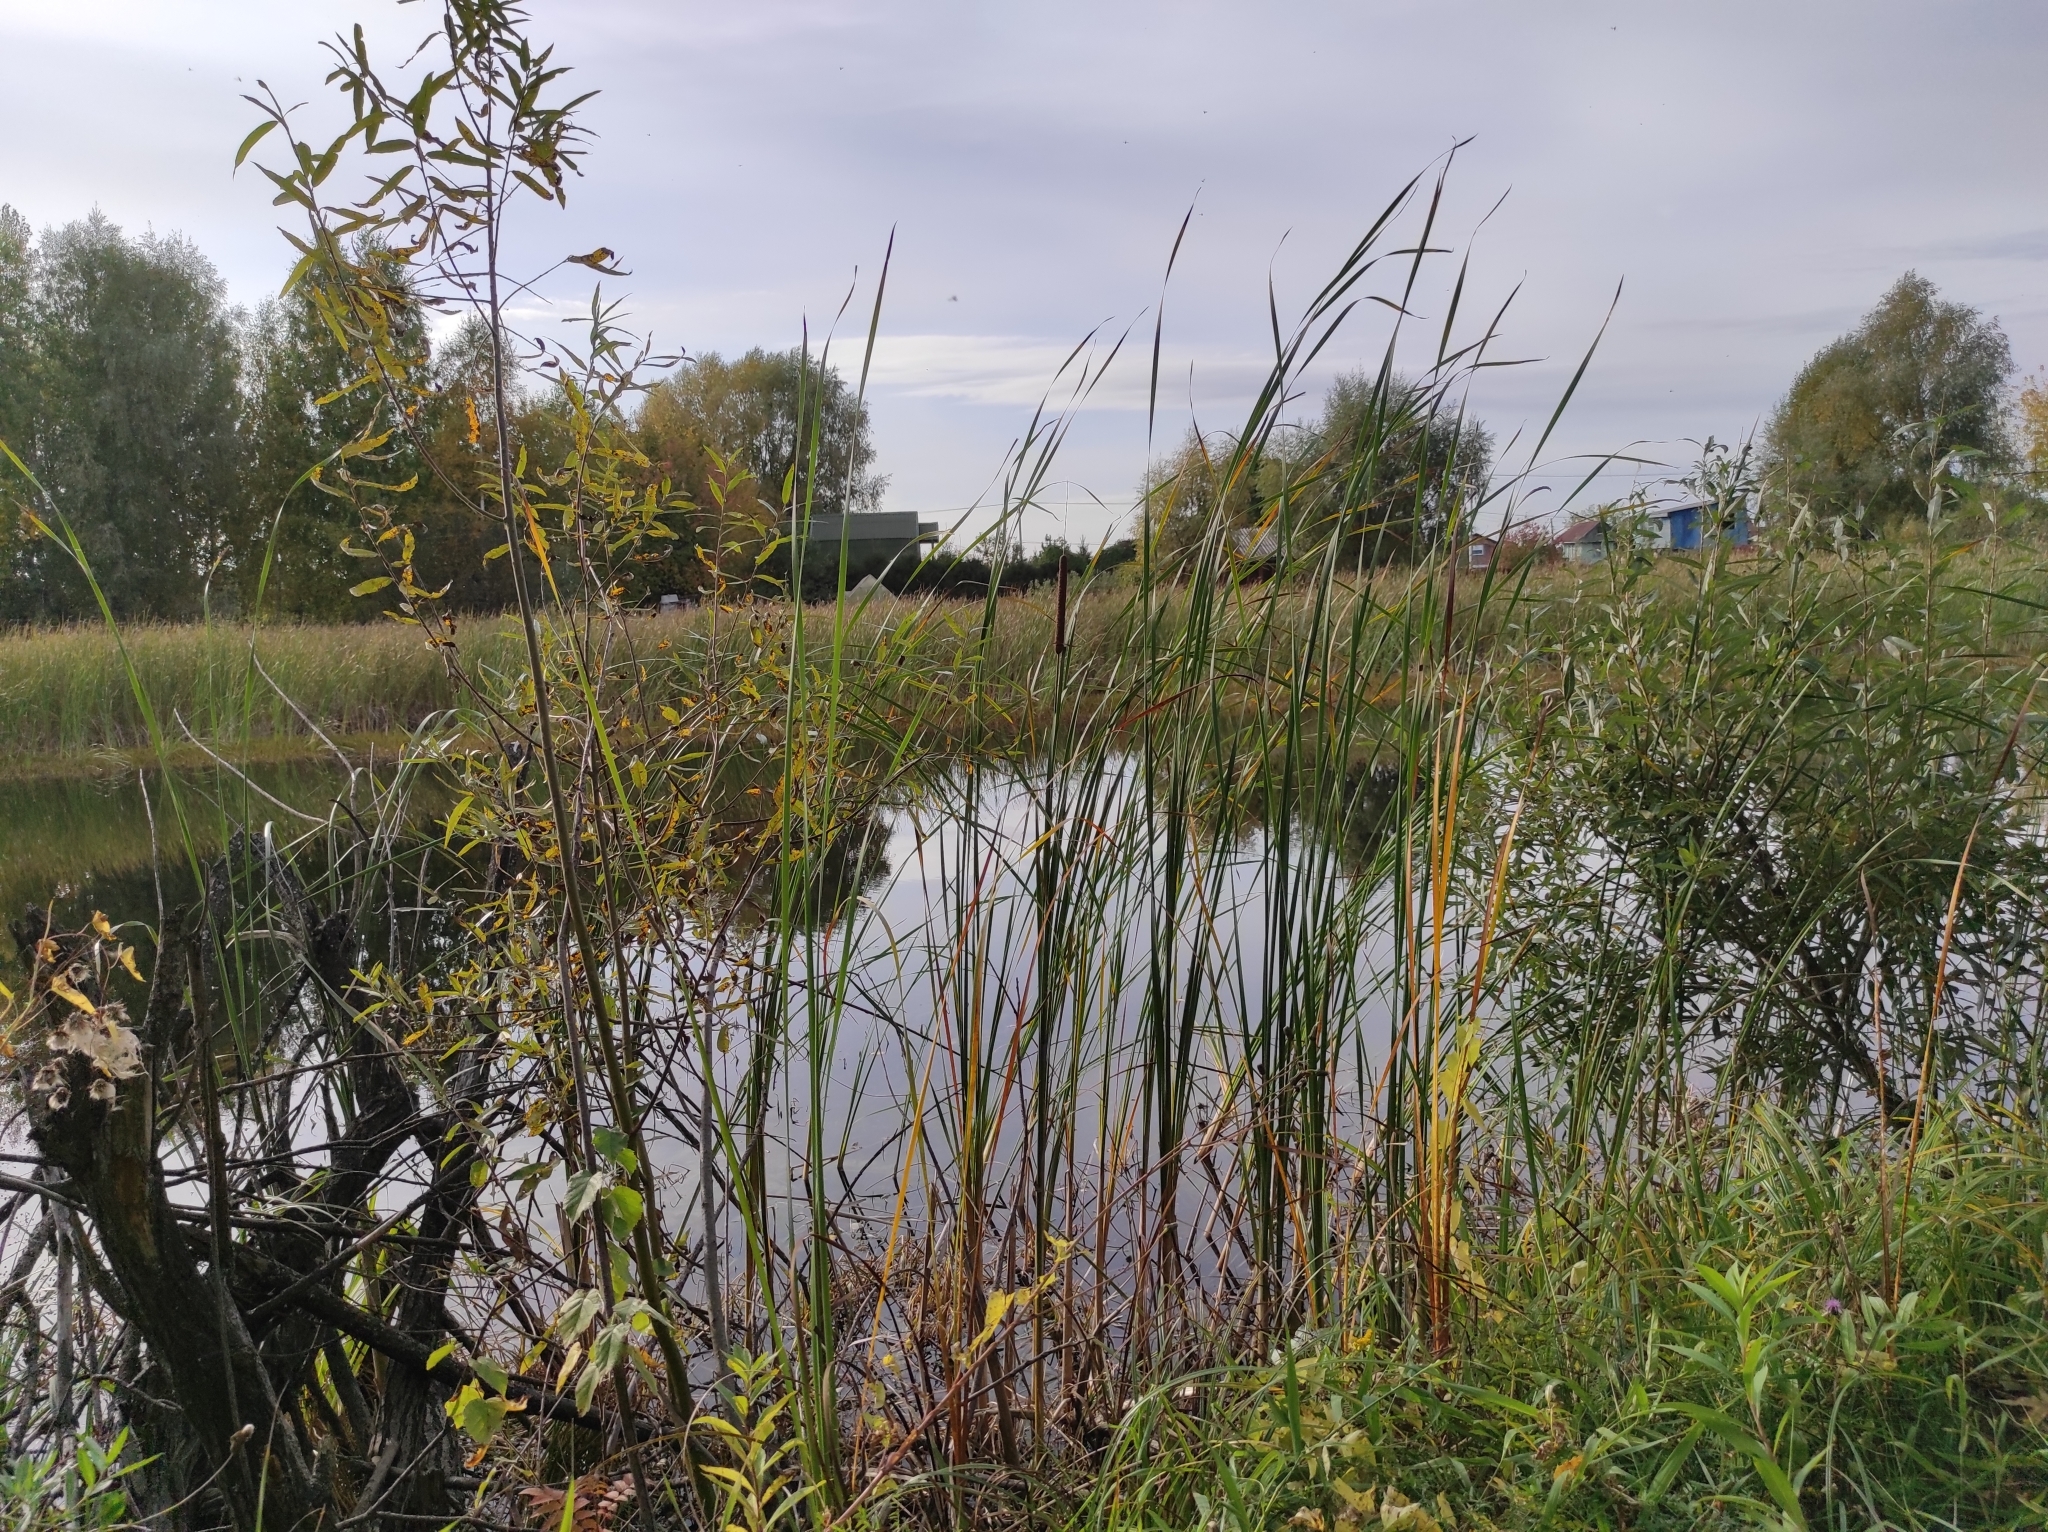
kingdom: Plantae
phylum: Tracheophyta
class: Liliopsida
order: Poales
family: Typhaceae
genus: Typha
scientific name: Typha angustifolia
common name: Lesser bulrush
